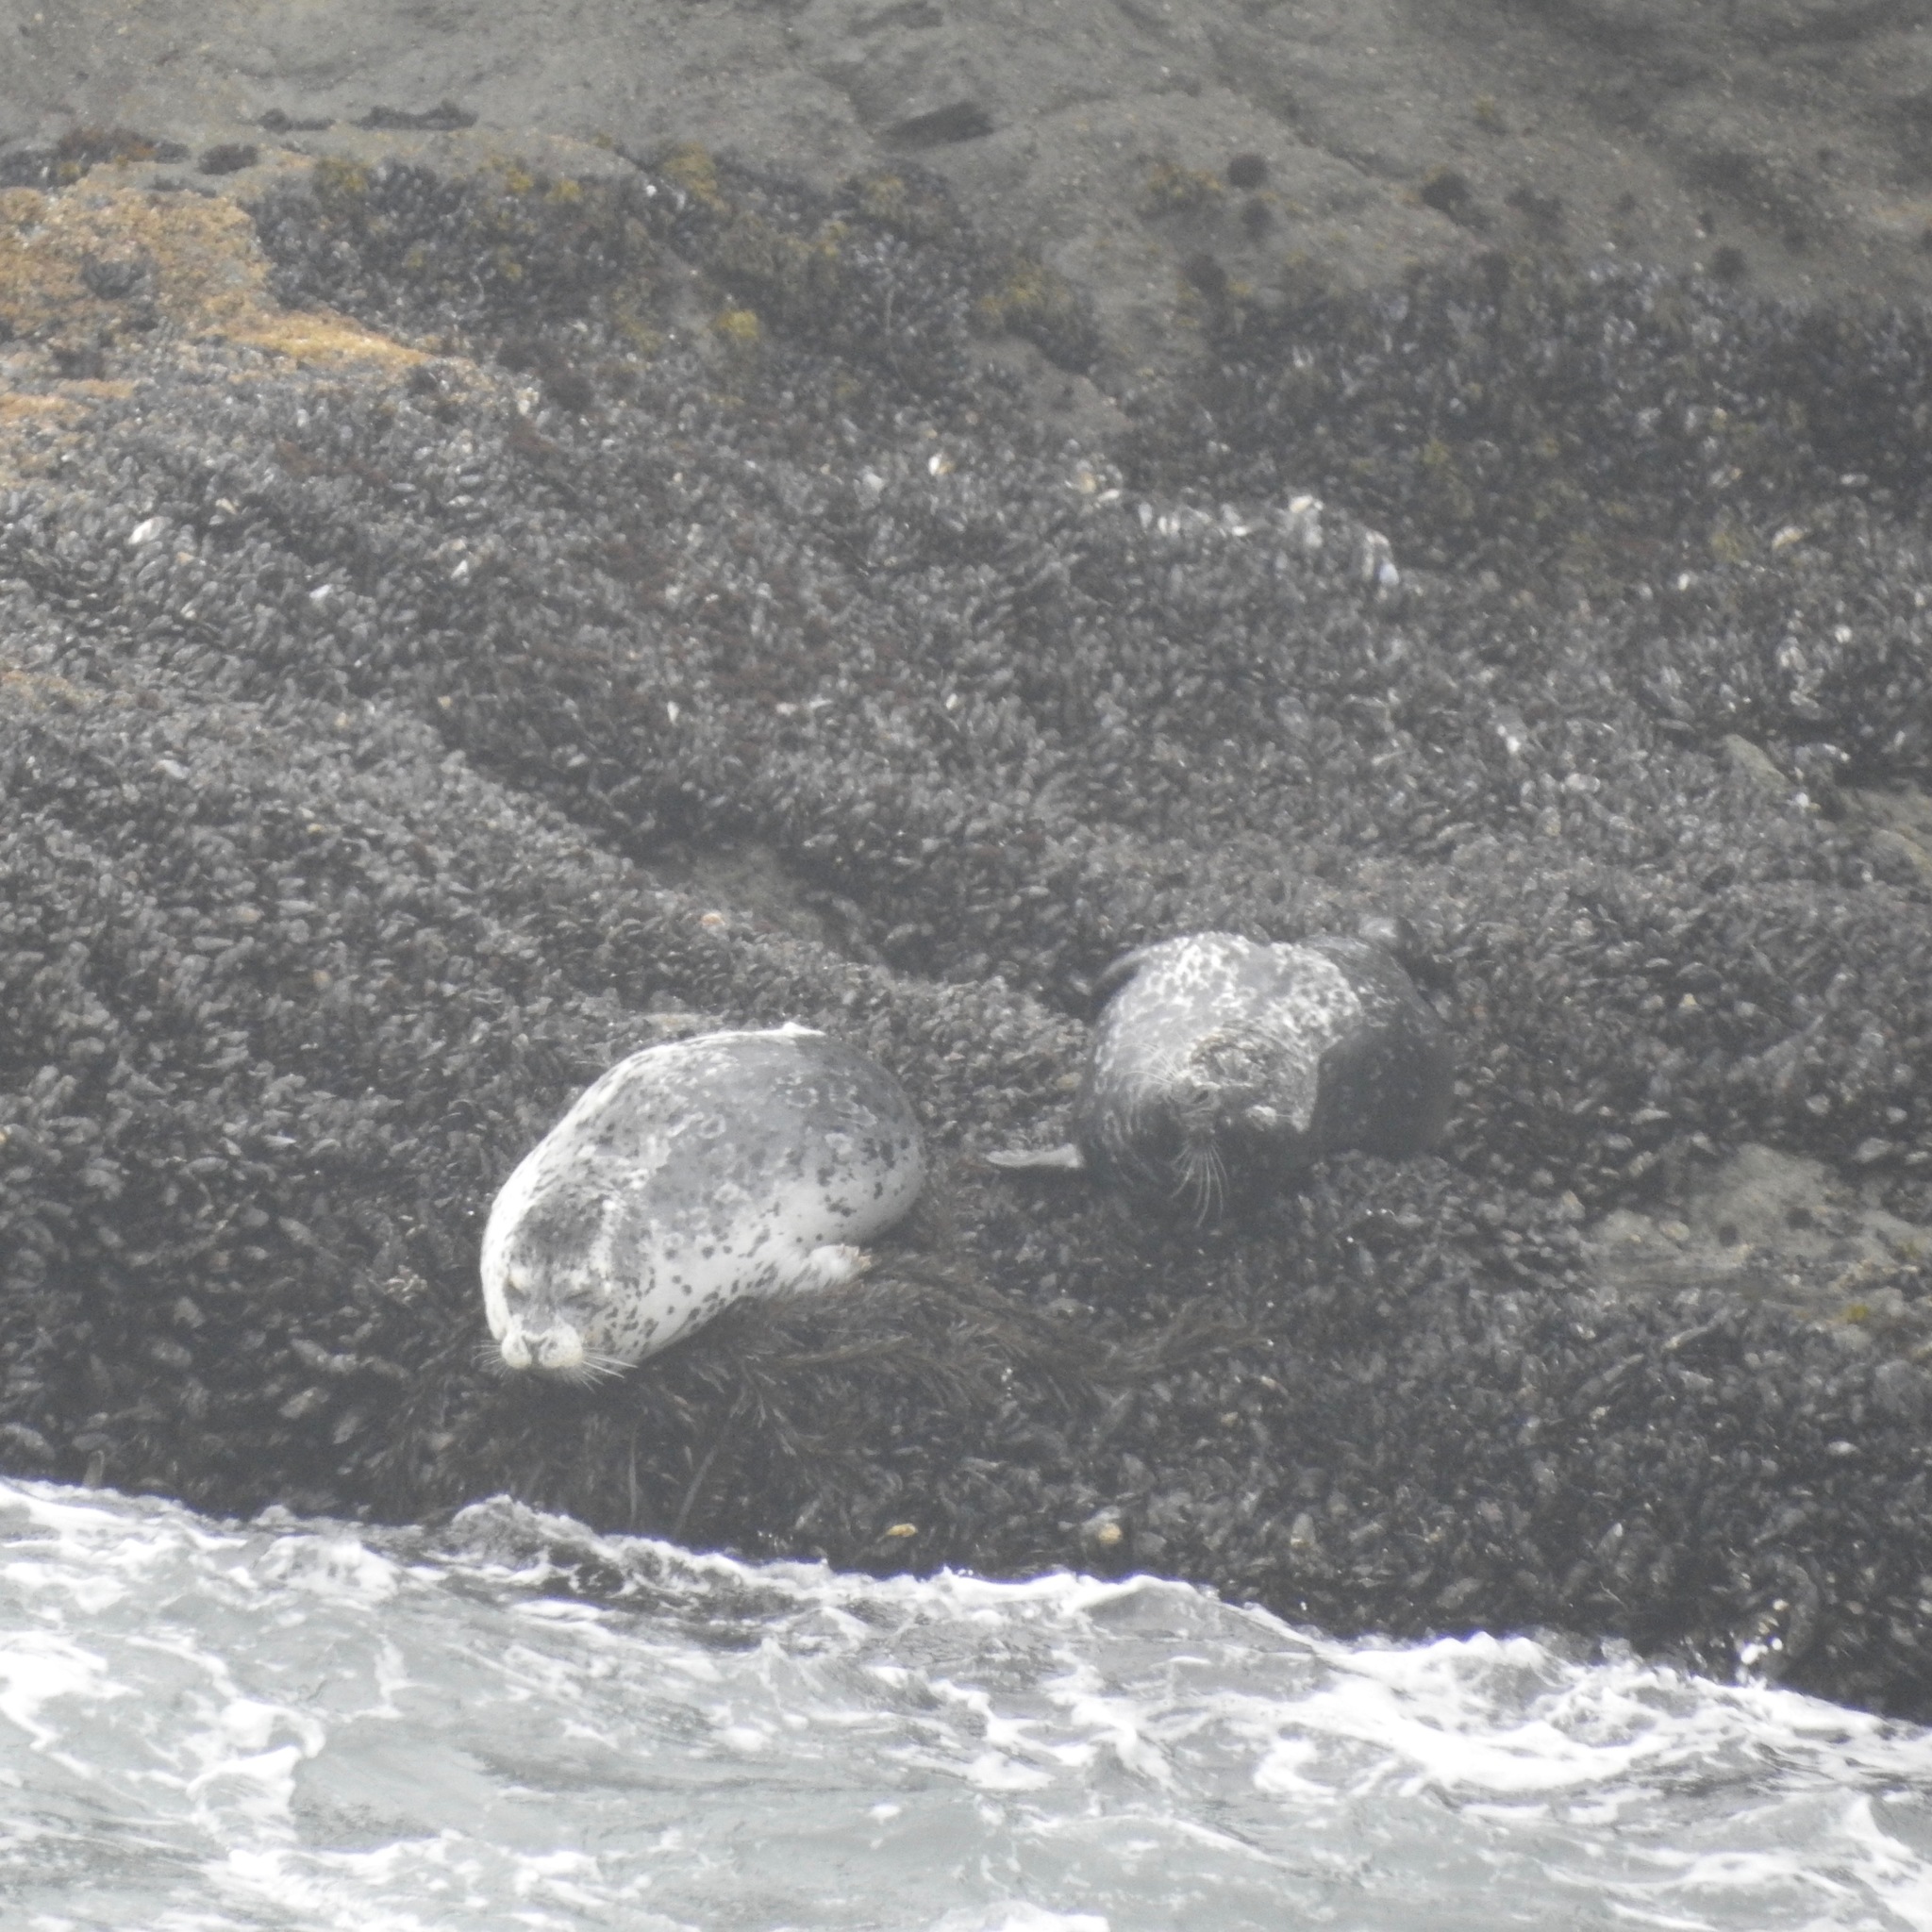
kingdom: Animalia
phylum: Chordata
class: Mammalia
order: Carnivora
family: Phocidae
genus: Phoca
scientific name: Phoca vitulina
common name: Harbor seal
